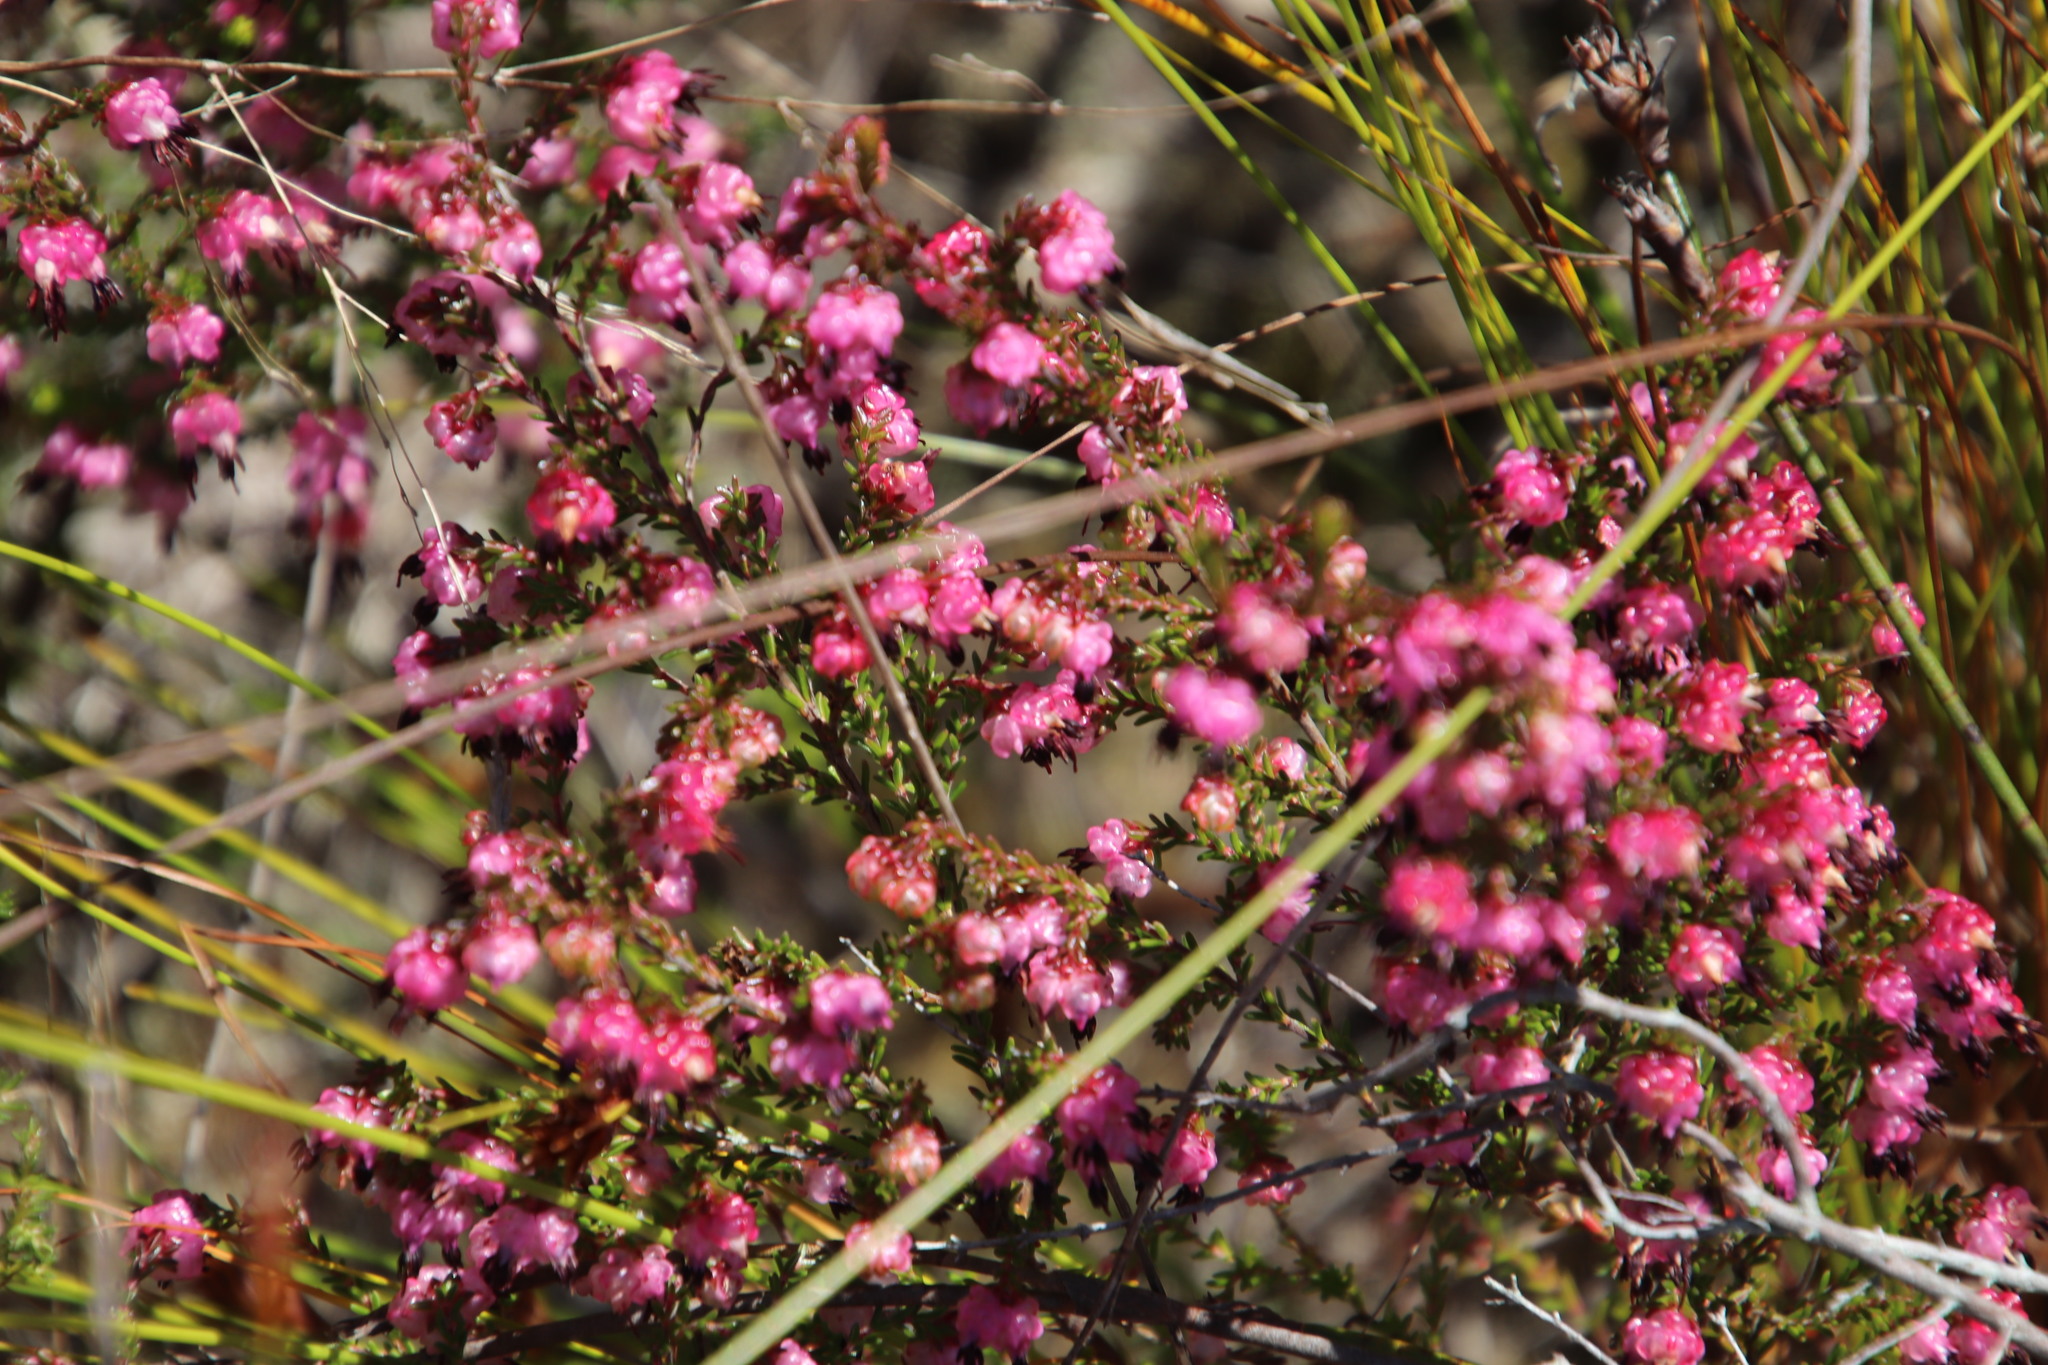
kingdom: Plantae
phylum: Tracheophyta
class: Magnoliopsida
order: Ericales
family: Ericaceae
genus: Erica
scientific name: Erica spumosa
